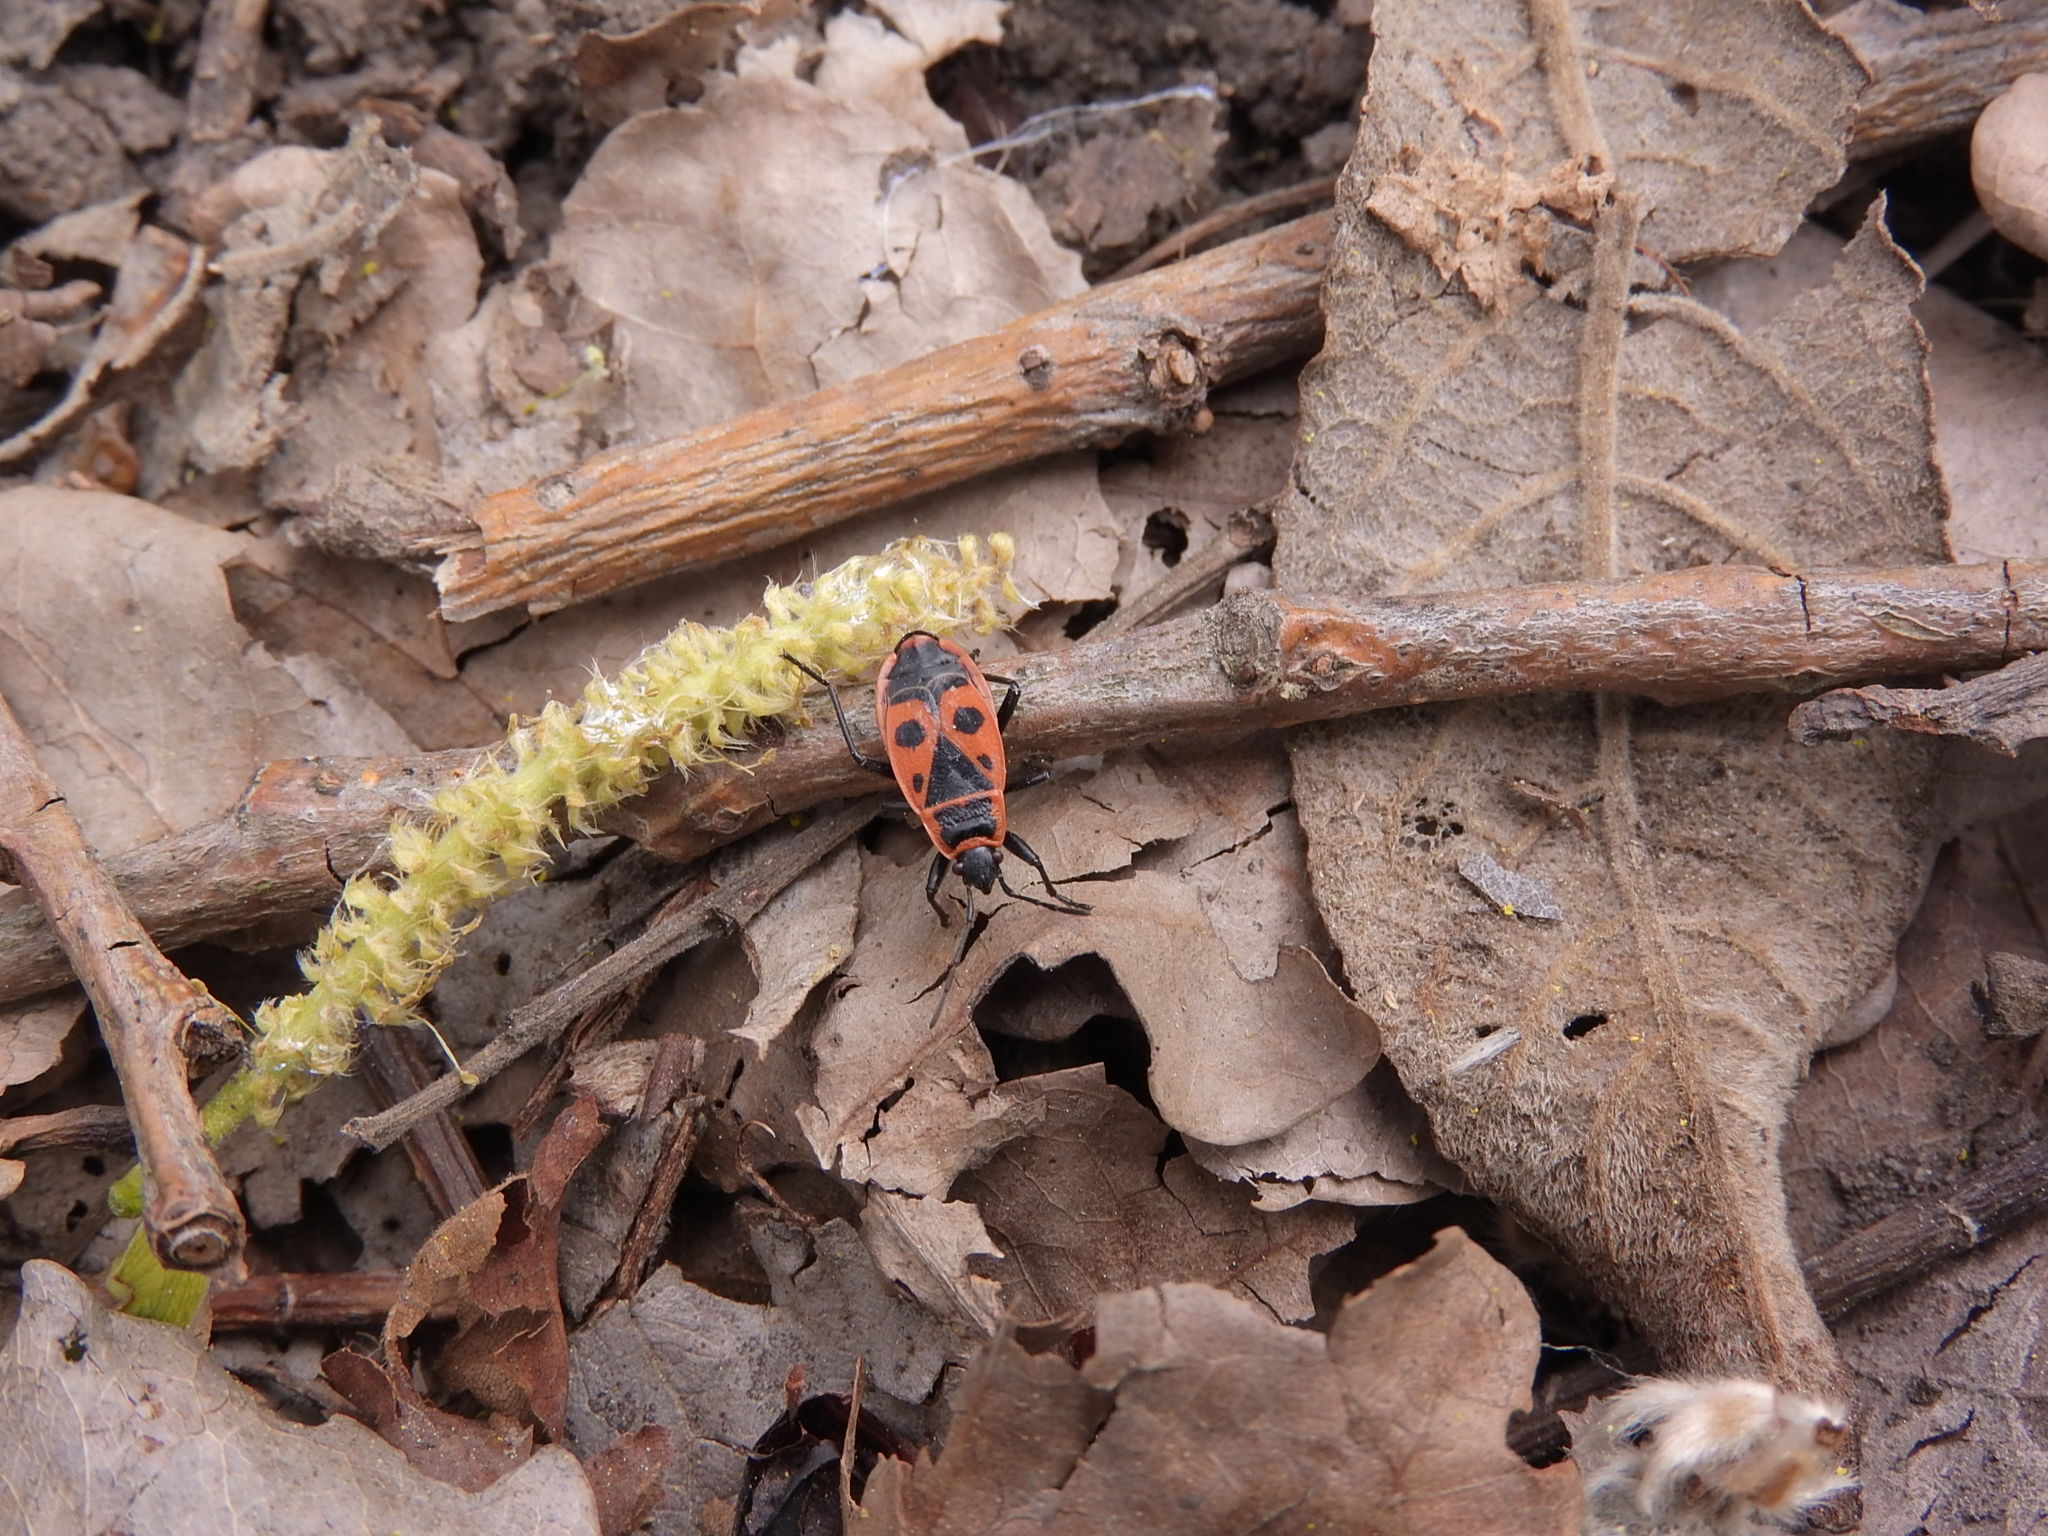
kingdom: Animalia
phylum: Arthropoda
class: Insecta
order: Hemiptera
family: Pyrrhocoridae
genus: Pyrrhocoris
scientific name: Pyrrhocoris apterus
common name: Firebug
